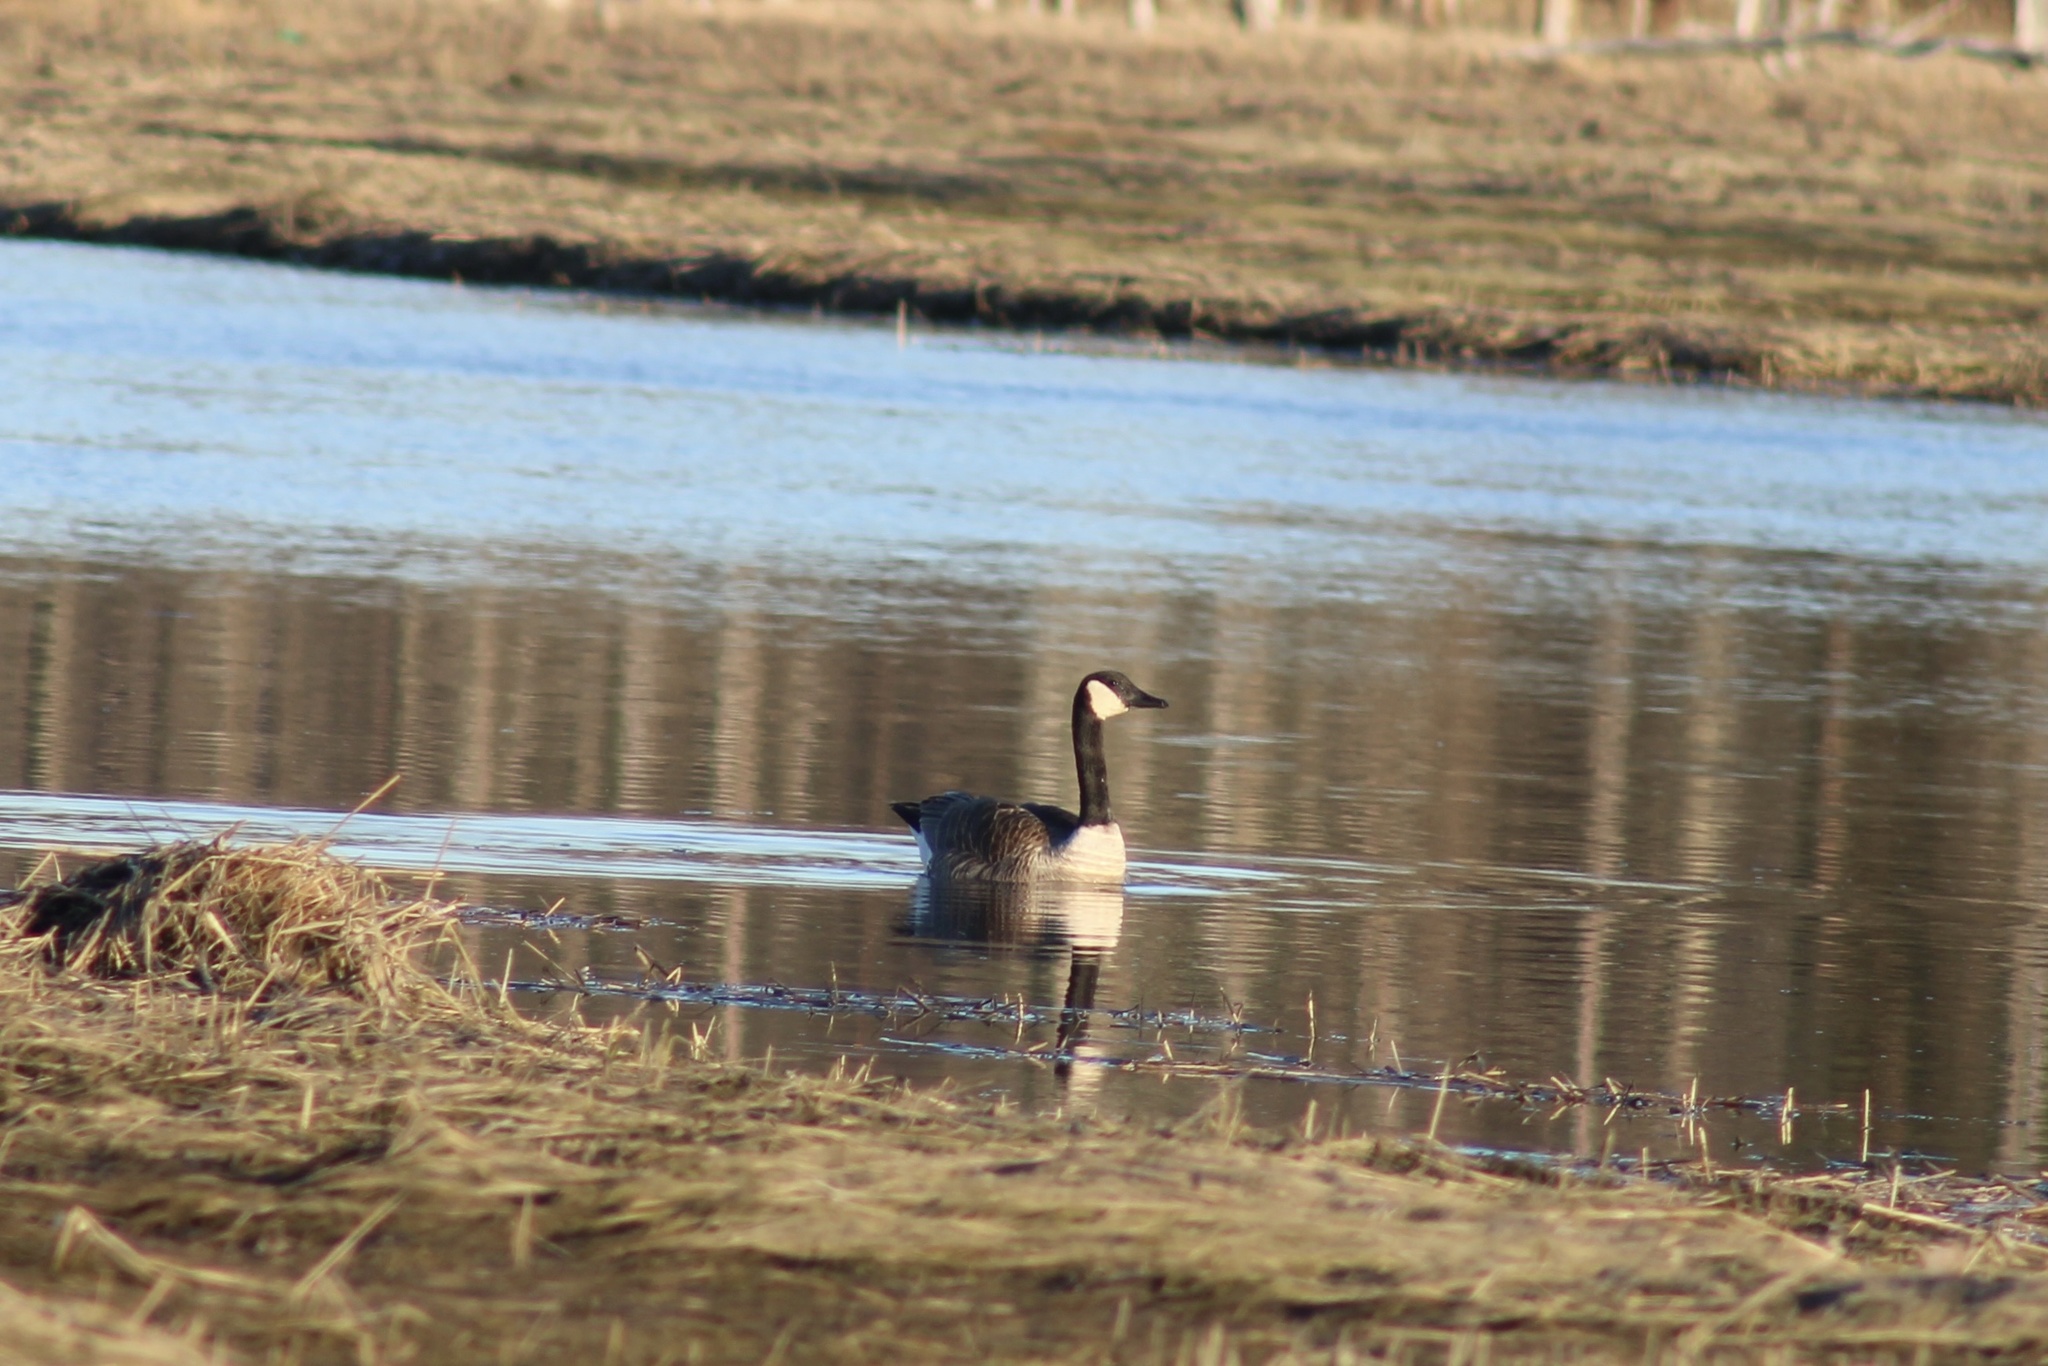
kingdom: Animalia
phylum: Chordata
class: Aves
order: Anseriformes
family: Anatidae
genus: Branta
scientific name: Branta canadensis
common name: Canada goose
